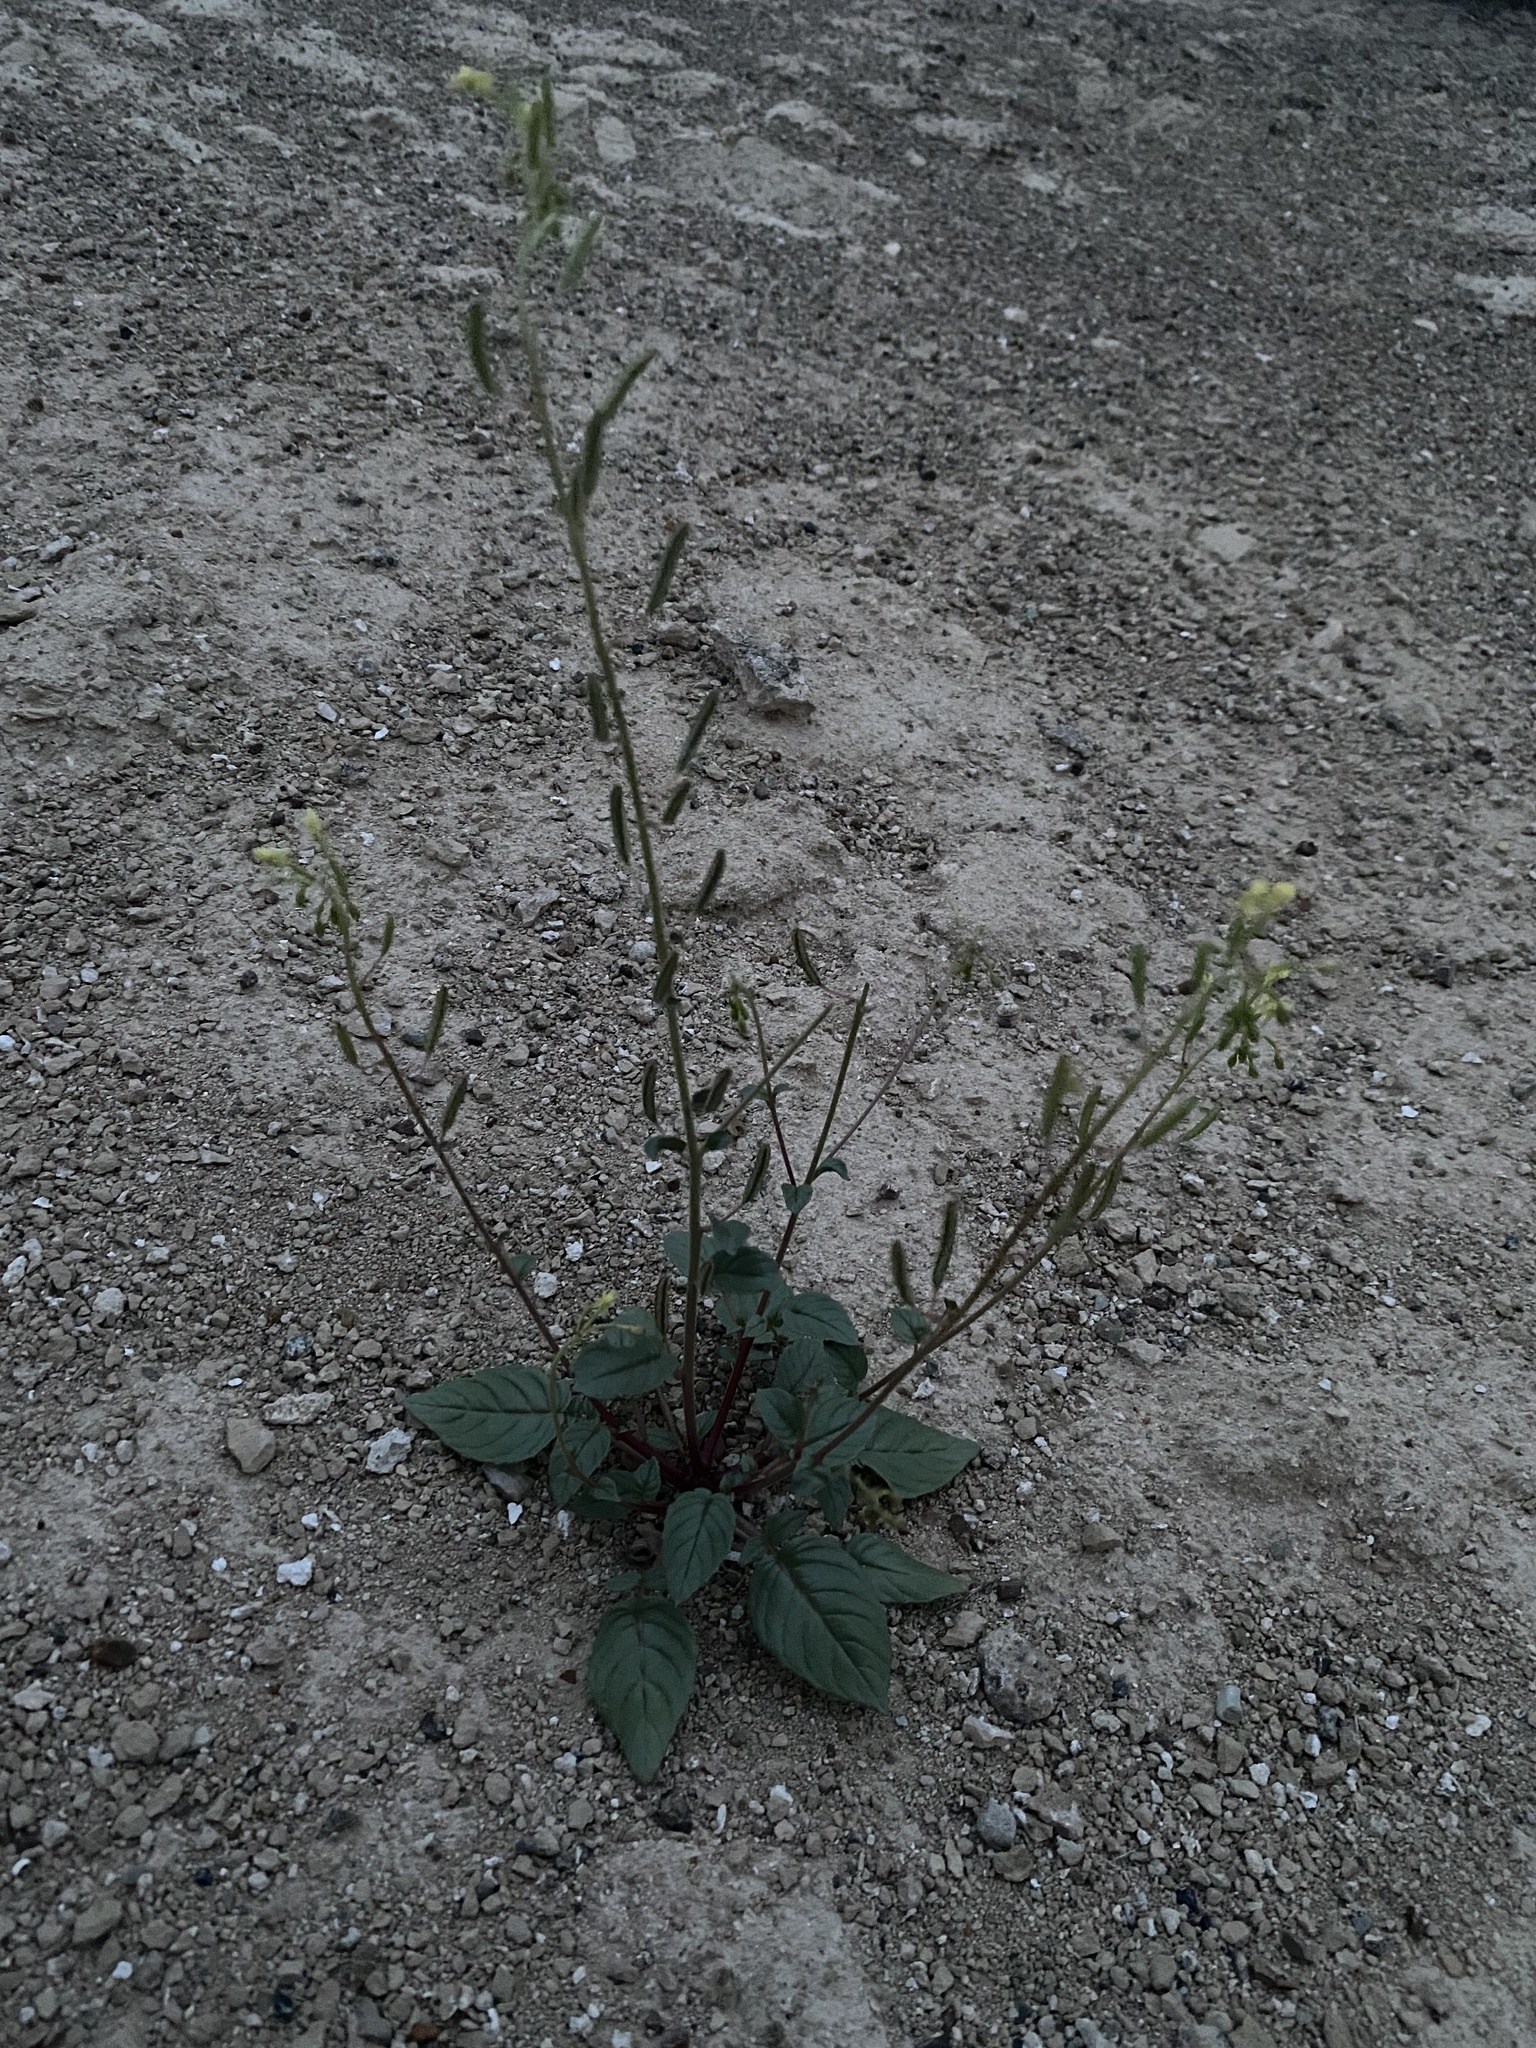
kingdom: Plantae
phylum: Tracheophyta
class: Magnoliopsida
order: Myrtales
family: Onagraceae
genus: Chylismia
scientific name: Chylismia scapoidea
